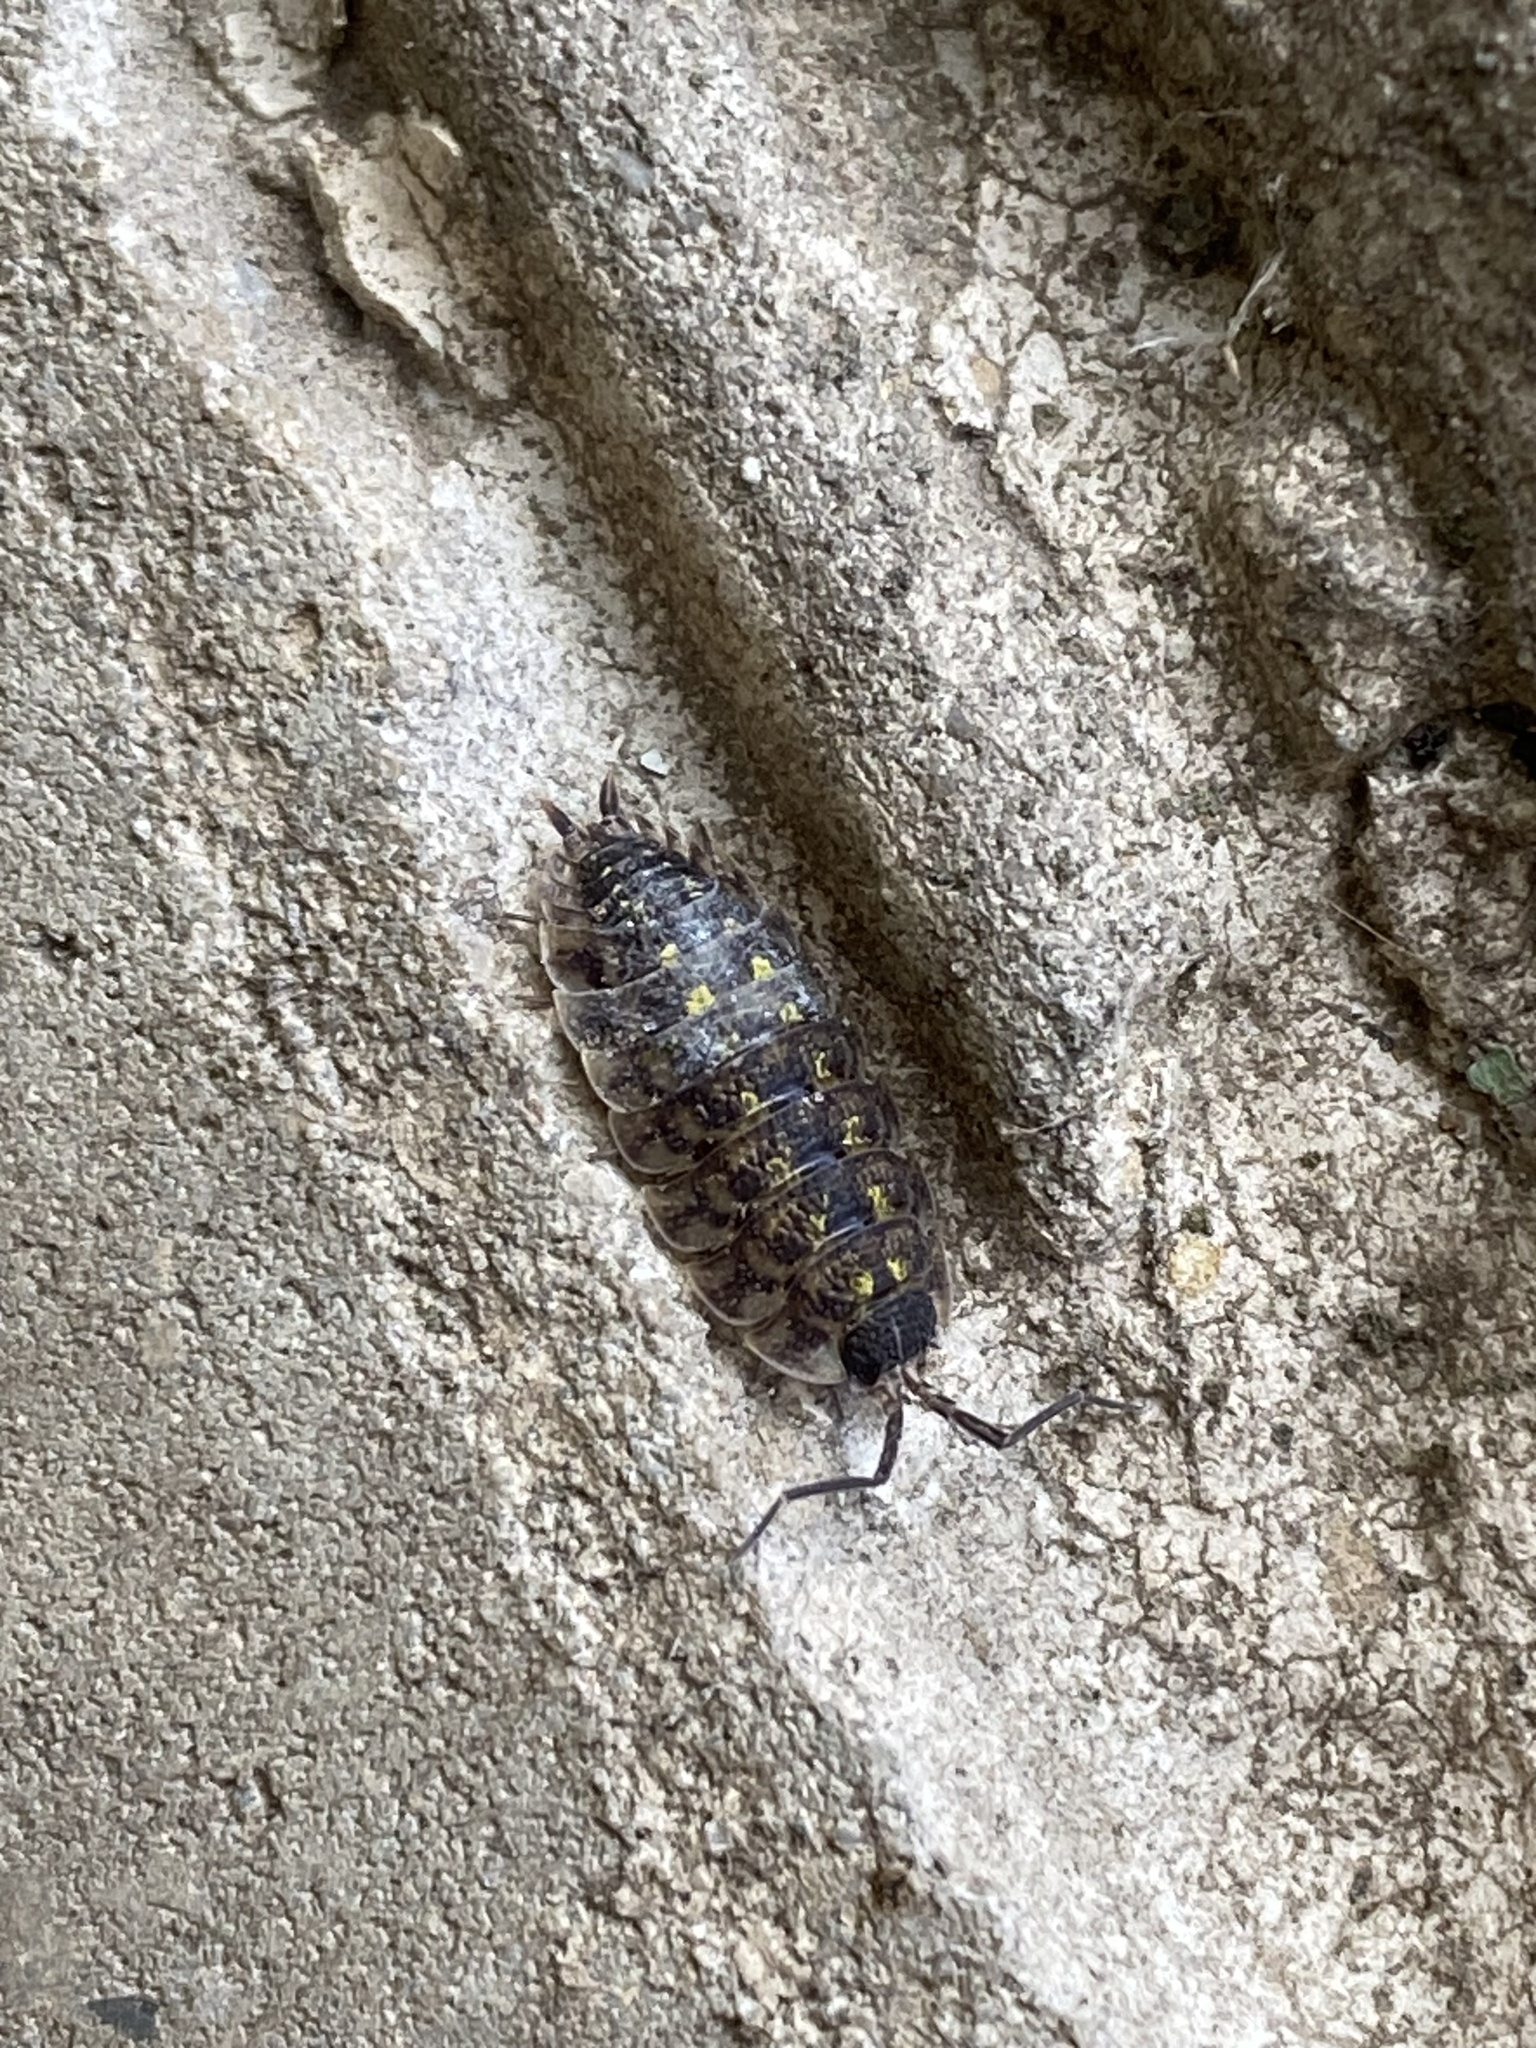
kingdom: Animalia
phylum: Arthropoda
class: Malacostraca
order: Isopoda
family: Porcellionidae
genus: Porcellio
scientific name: Porcellio spinicornis
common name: Painted woodlouse
